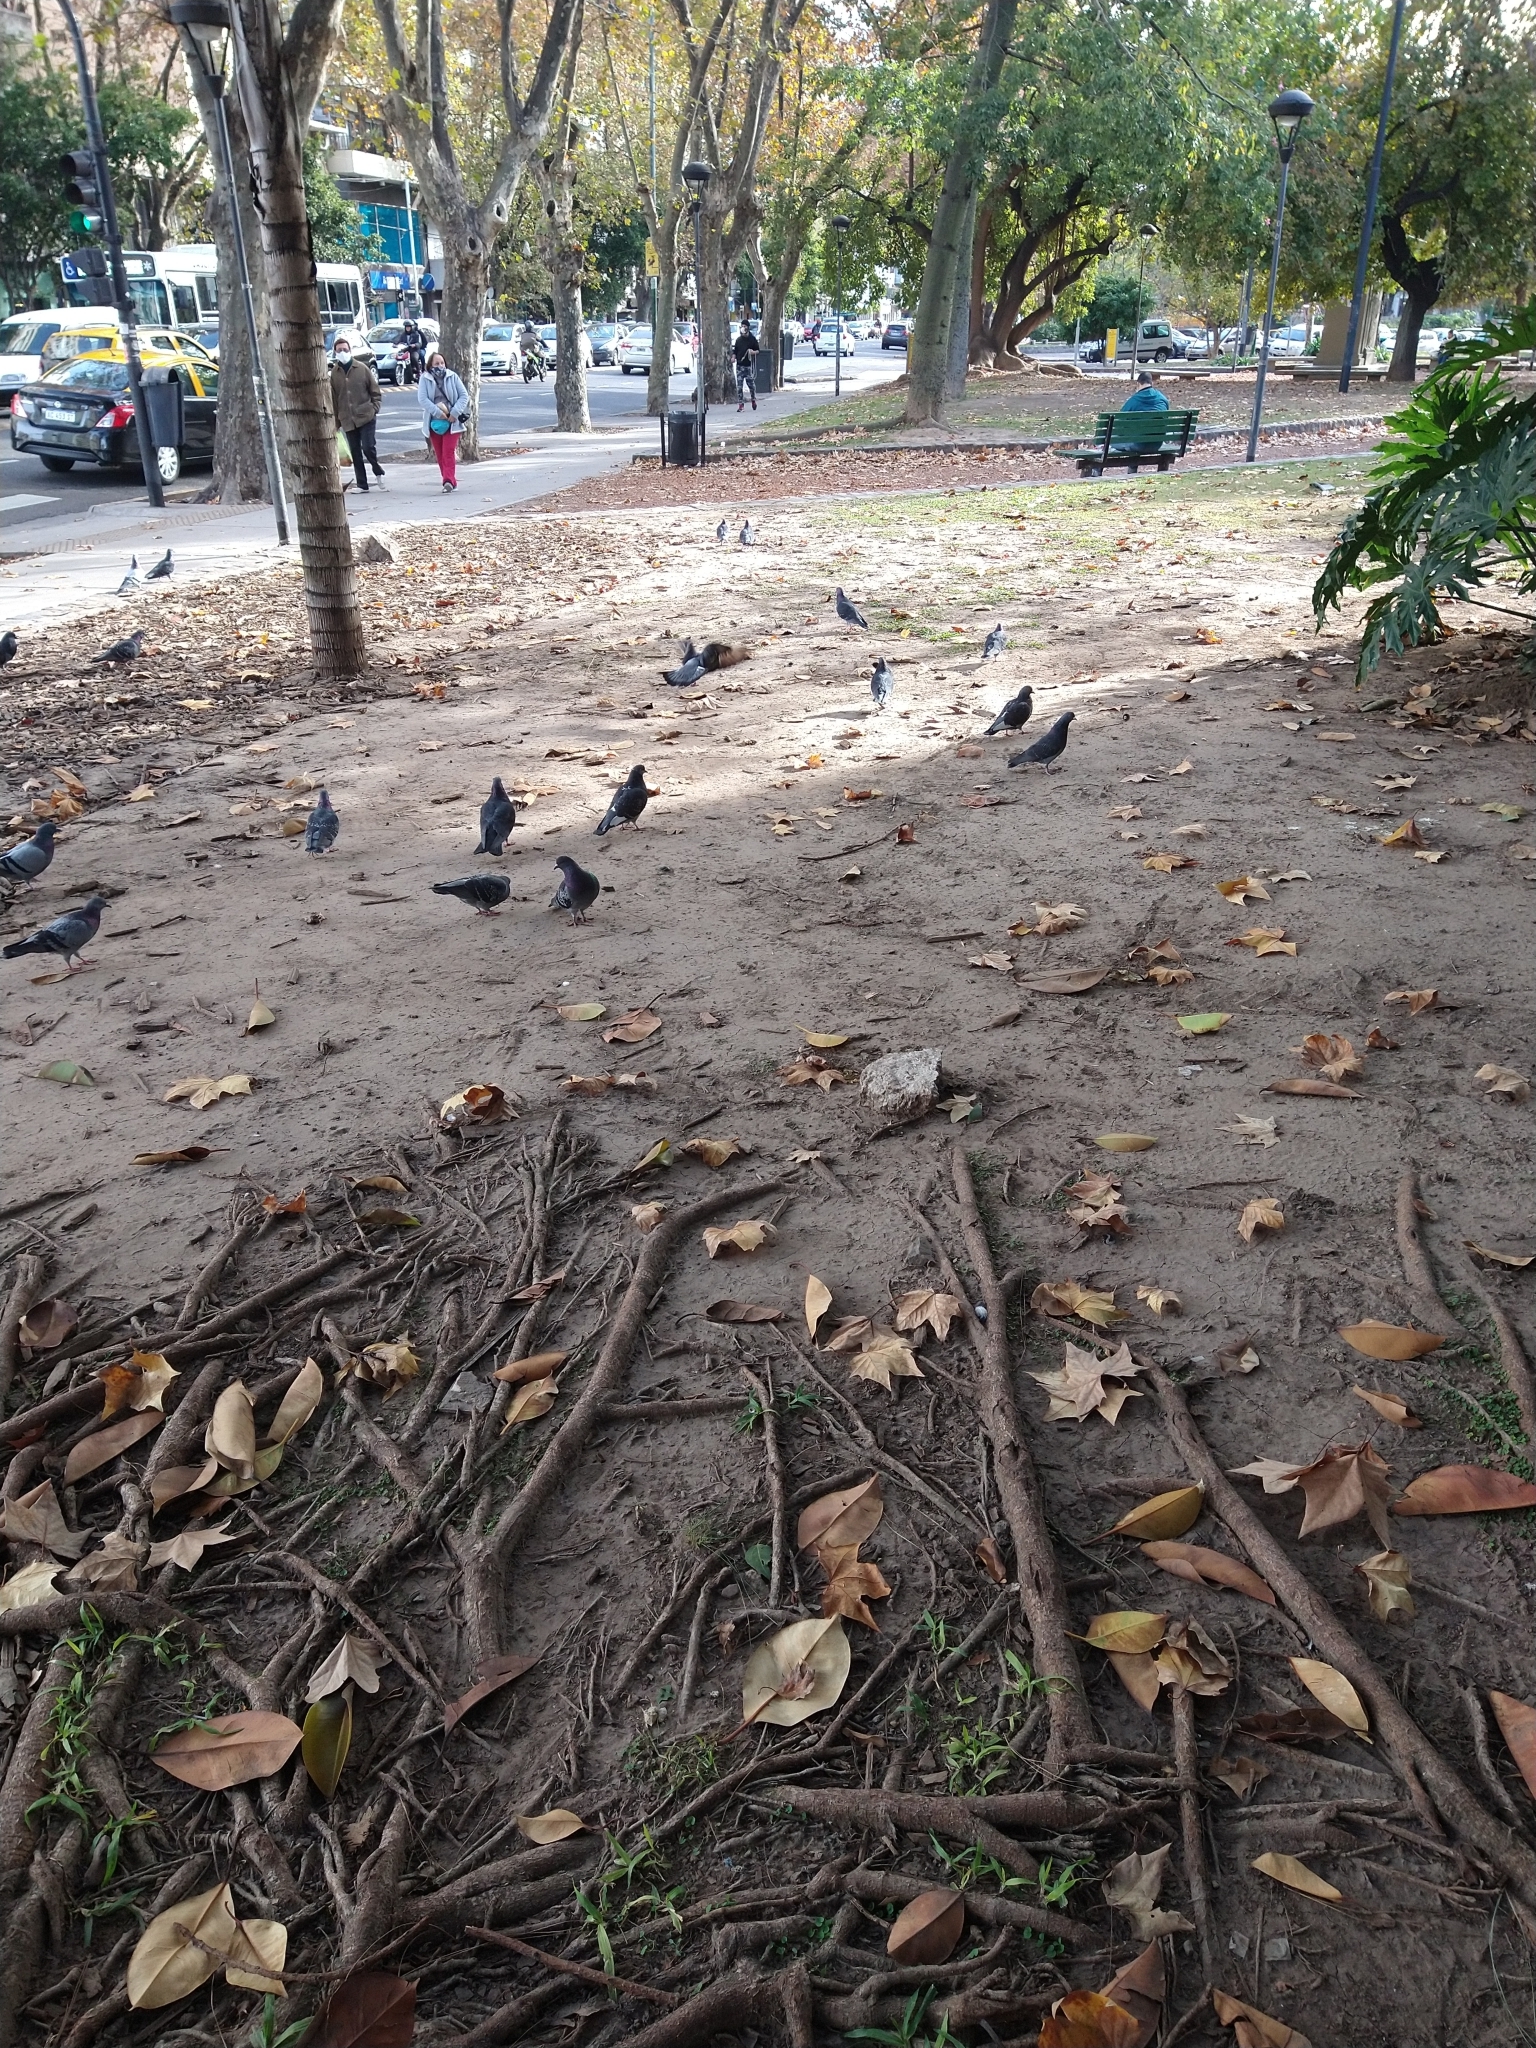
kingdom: Animalia
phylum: Chordata
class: Aves
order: Columbiformes
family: Columbidae
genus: Columba
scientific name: Columba livia
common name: Rock pigeon
